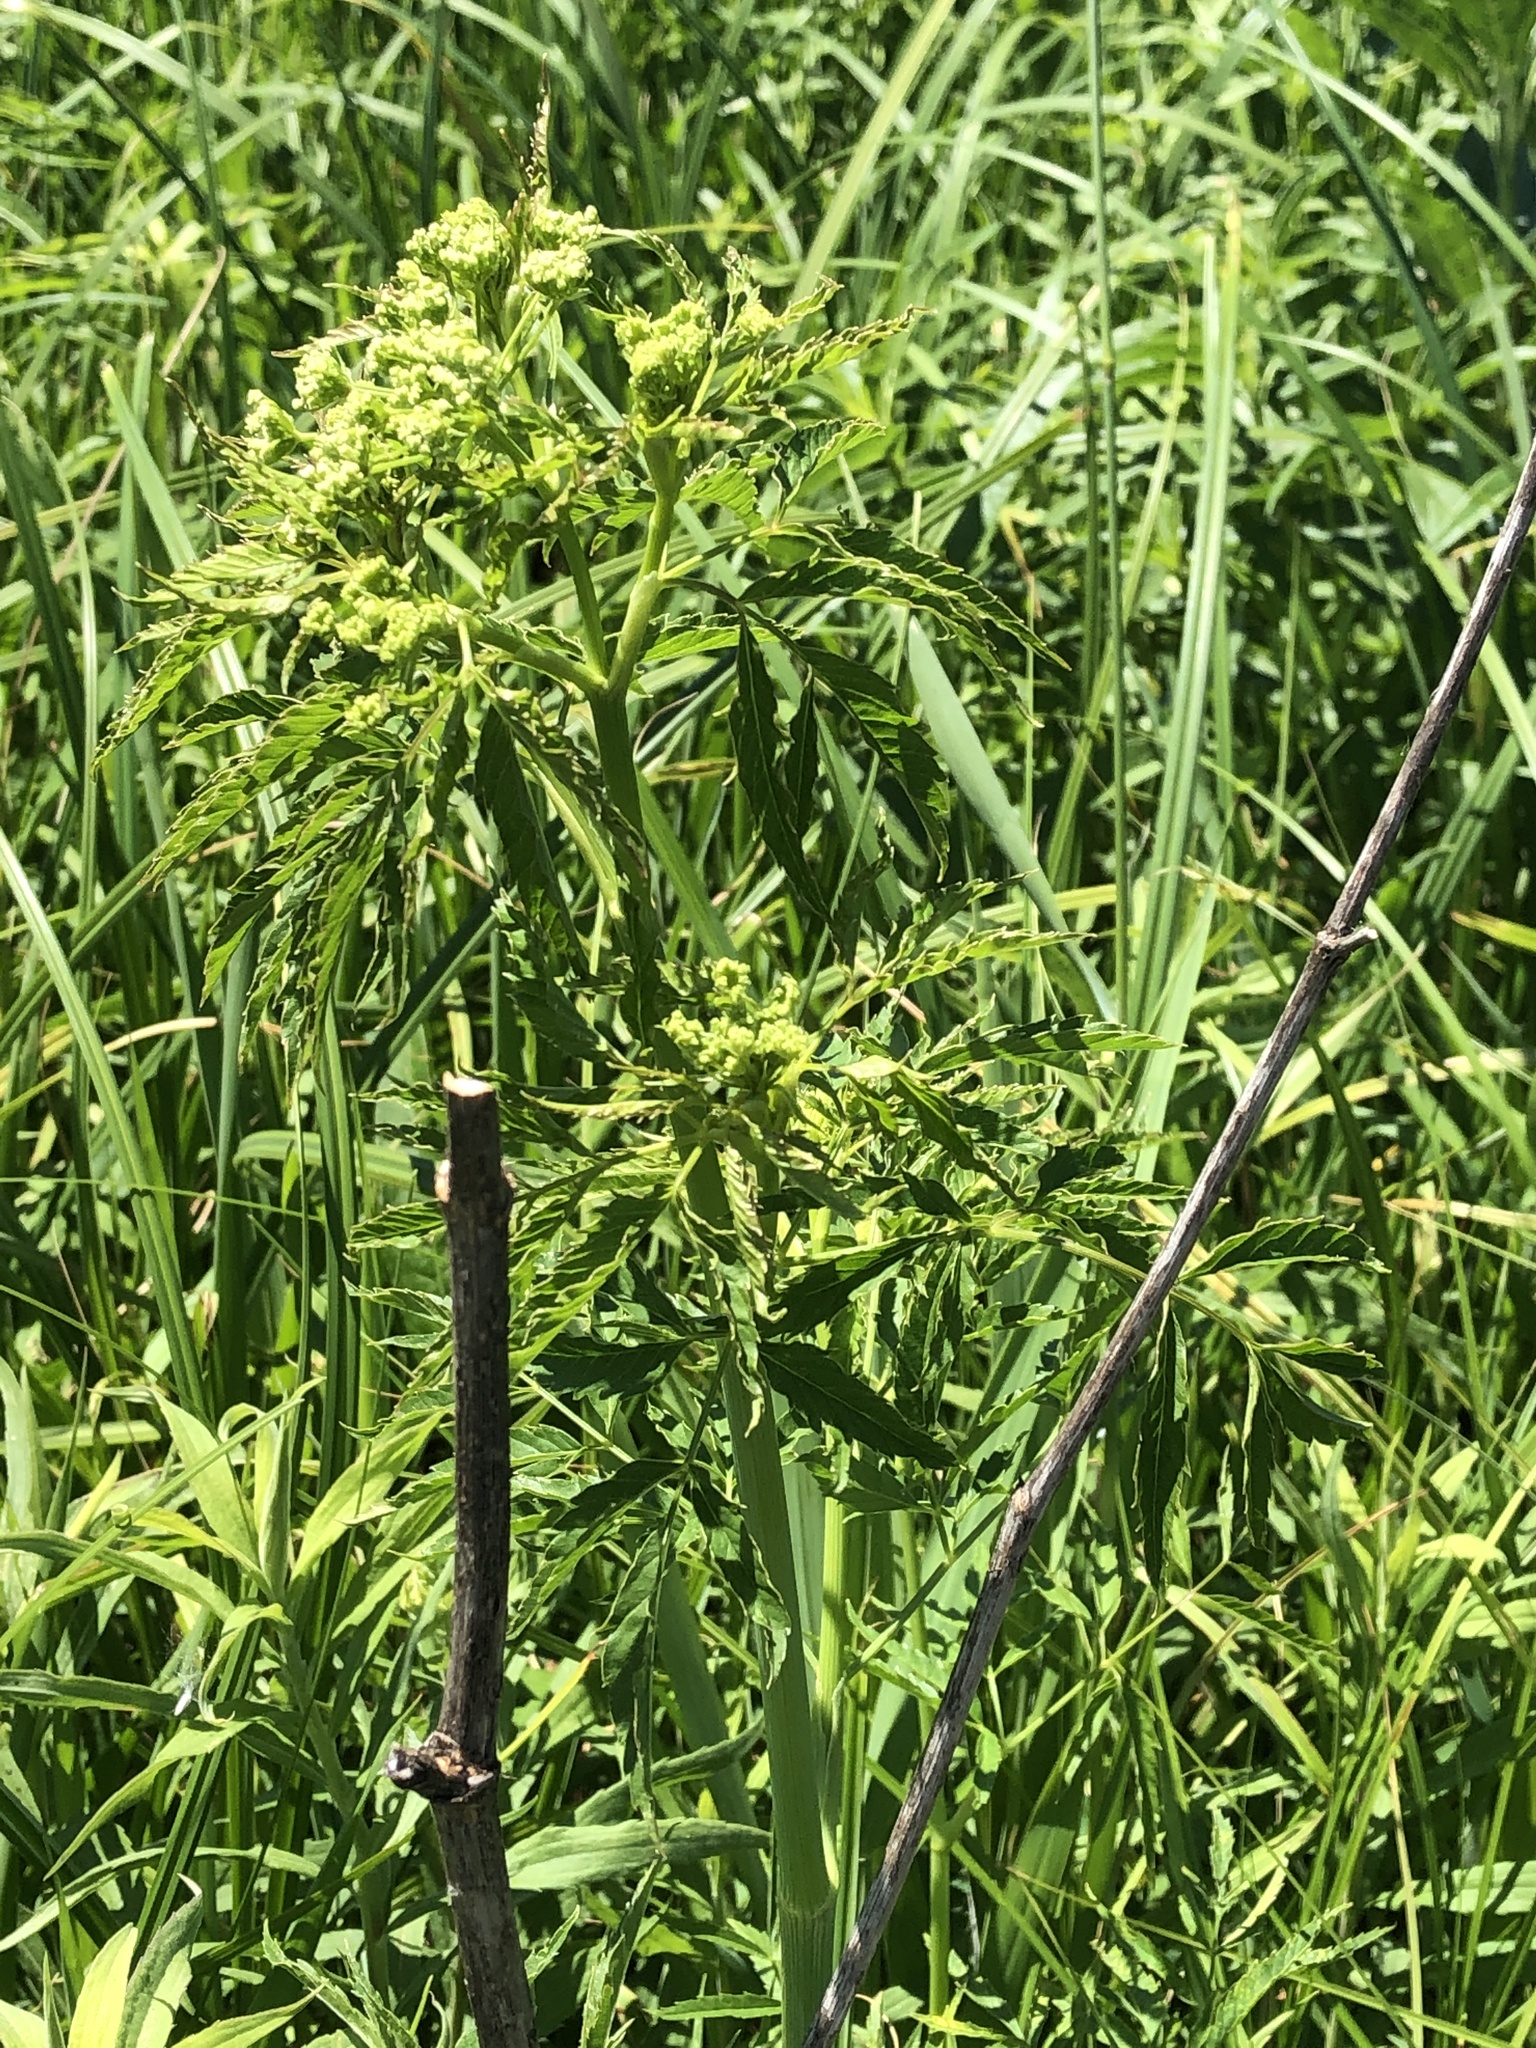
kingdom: Plantae
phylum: Tracheophyta
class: Magnoliopsida
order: Apiales
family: Apiaceae
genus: Cicuta
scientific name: Cicuta maculata
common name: Spotted cowbane
